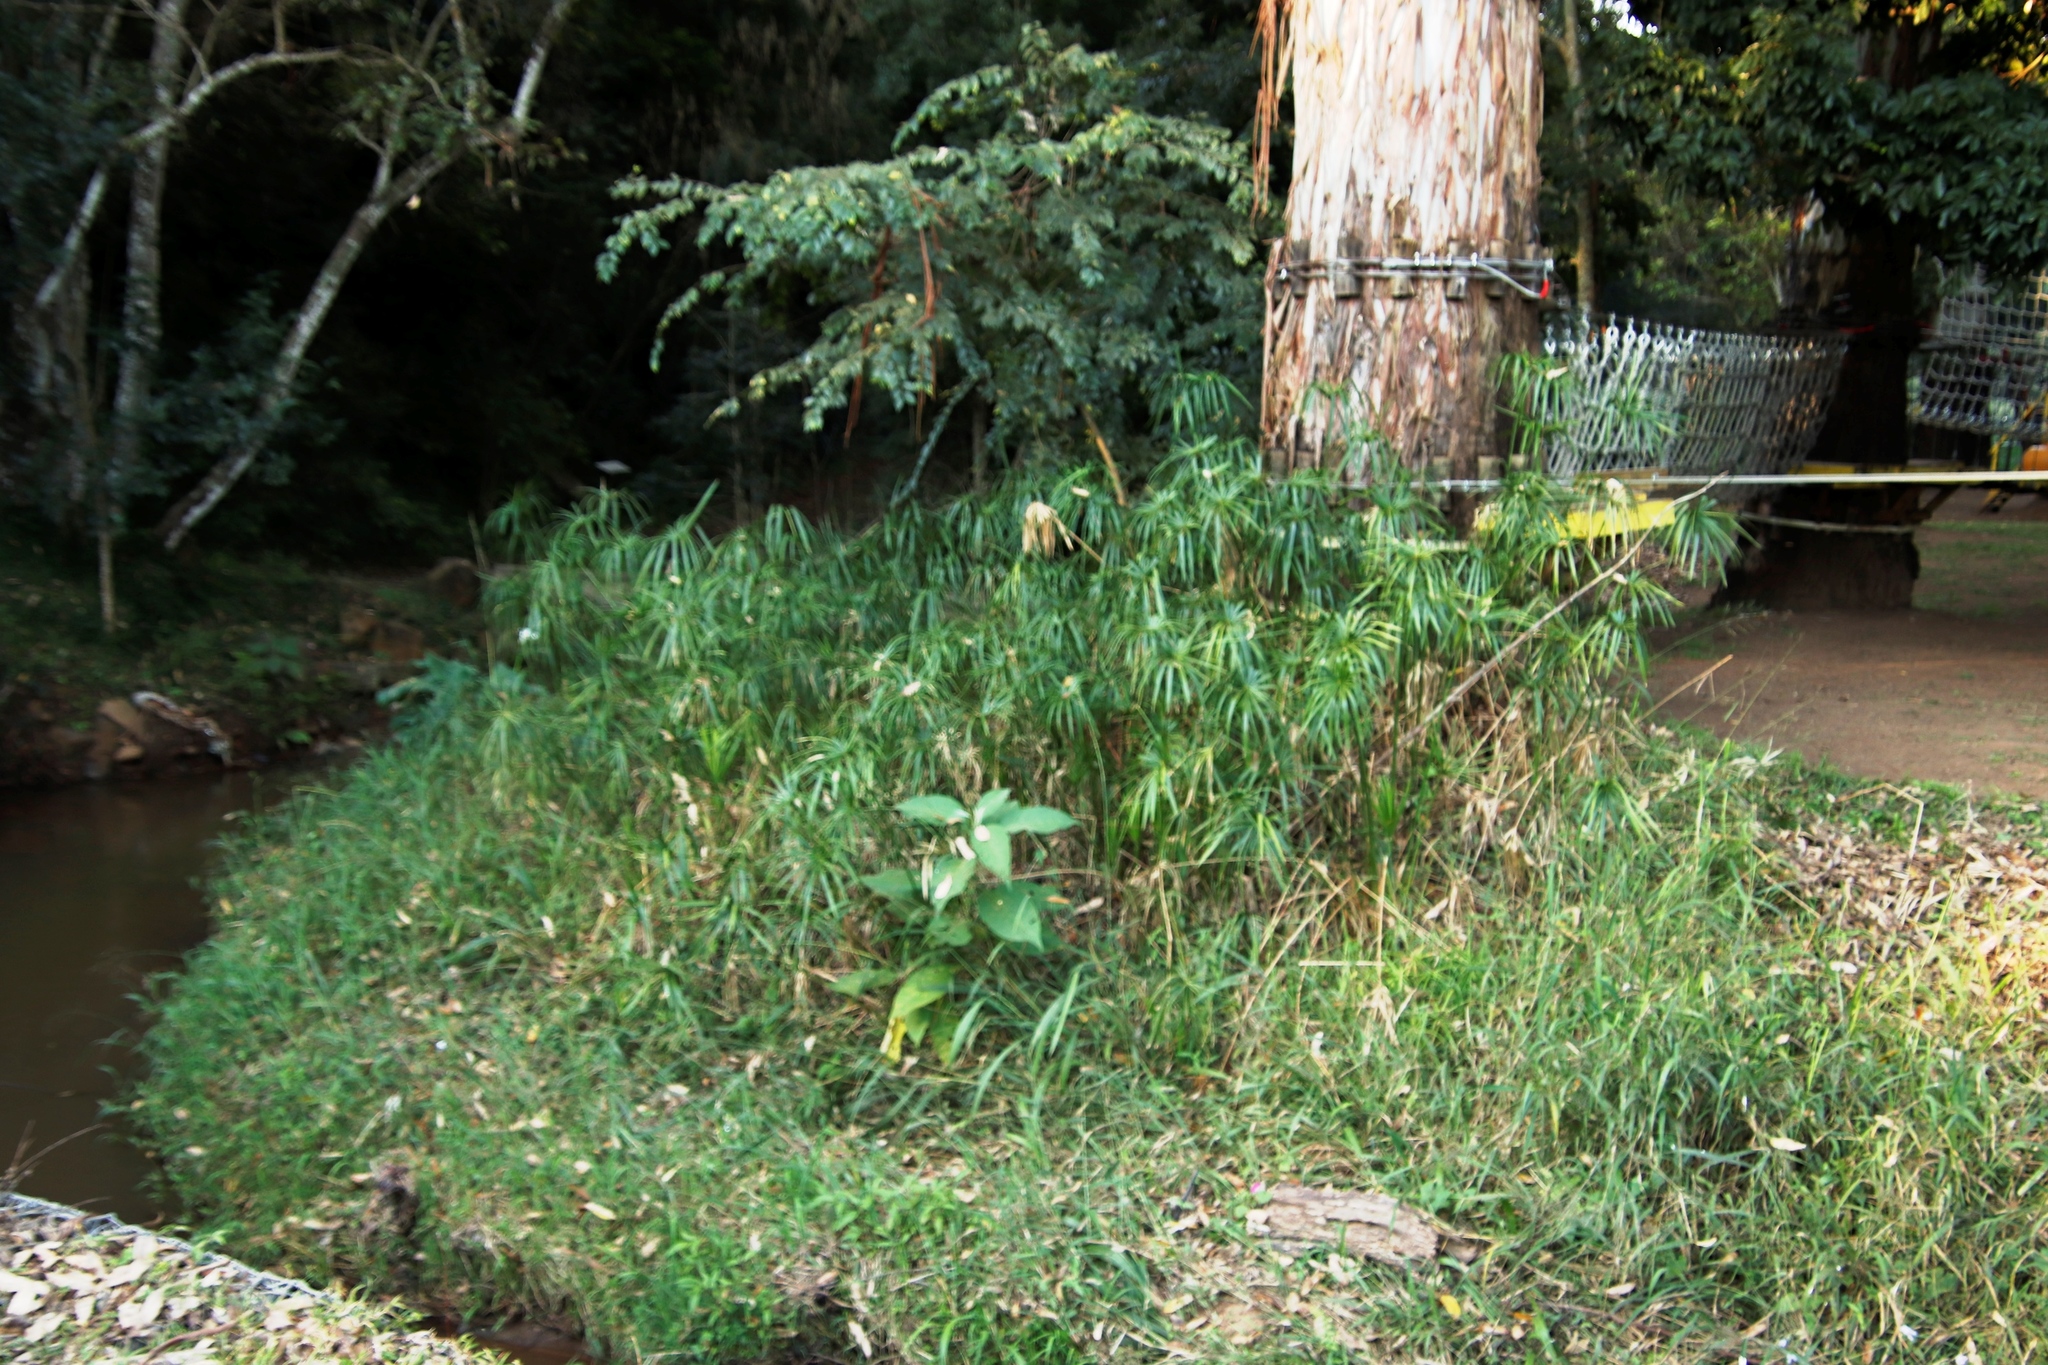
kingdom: Plantae
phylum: Tracheophyta
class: Liliopsida
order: Poales
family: Cyperaceae
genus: Cyperus
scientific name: Cyperus textilis
